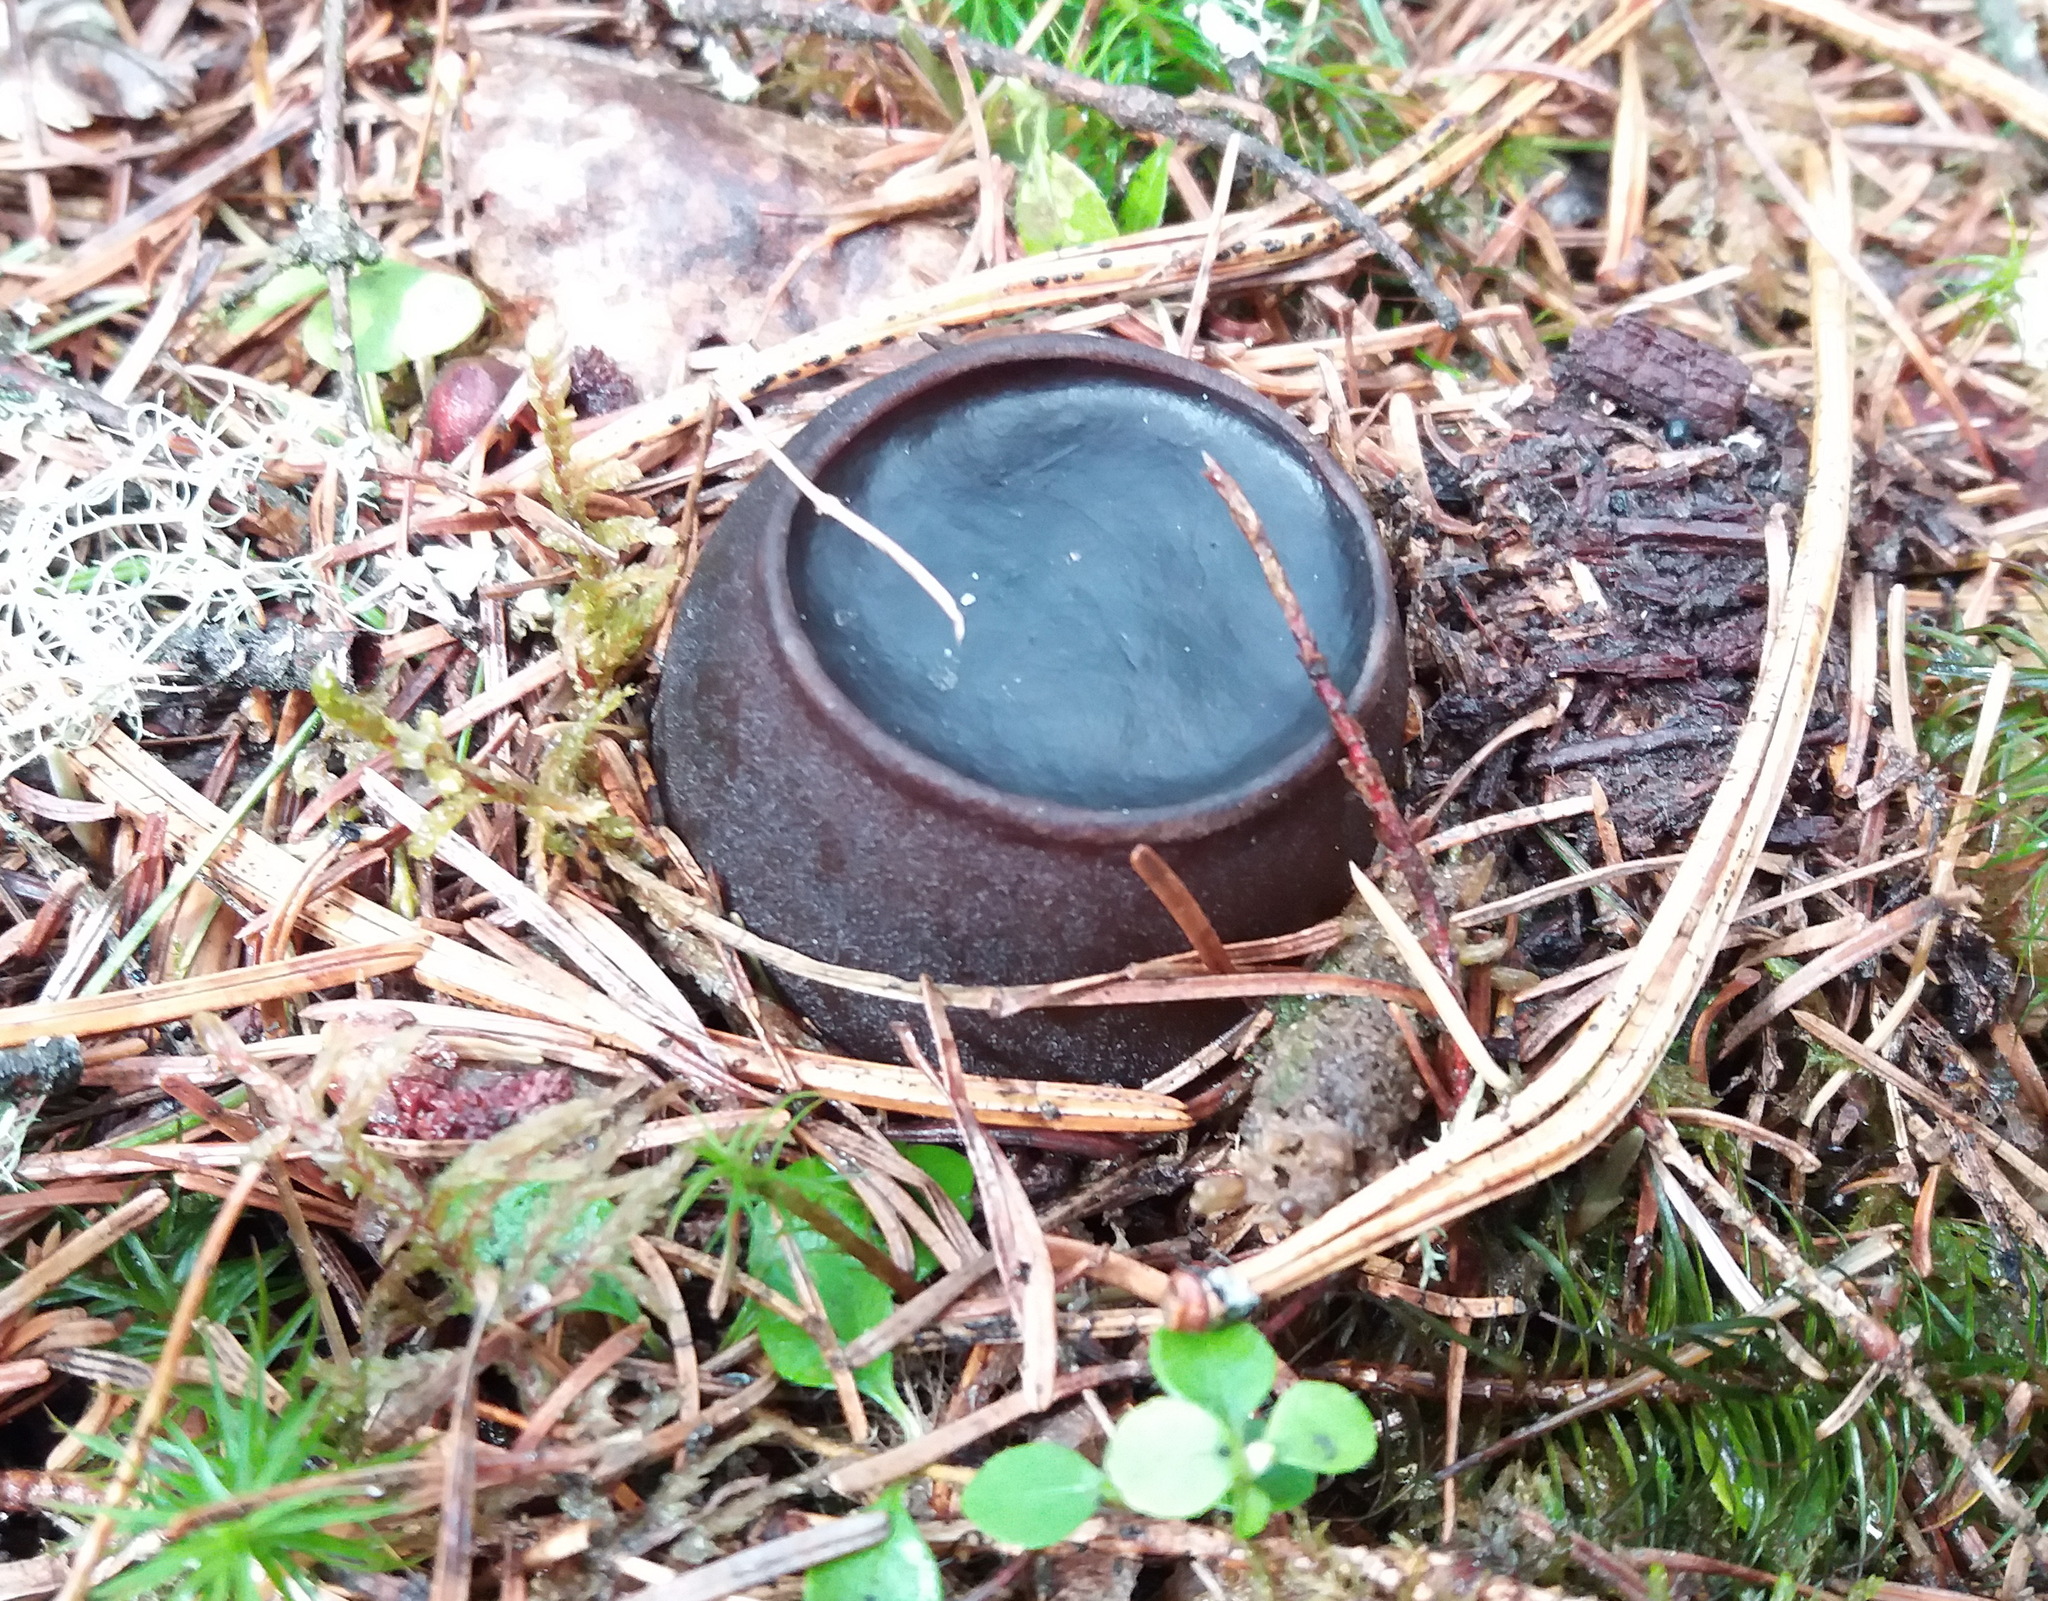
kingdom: Fungi
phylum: Ascomycota
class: Pezizomycetes
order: Pezizales
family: Sarcosomataceae
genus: Sarcosoma
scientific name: Sarcosoma globosum
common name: Charred-pancake cup
